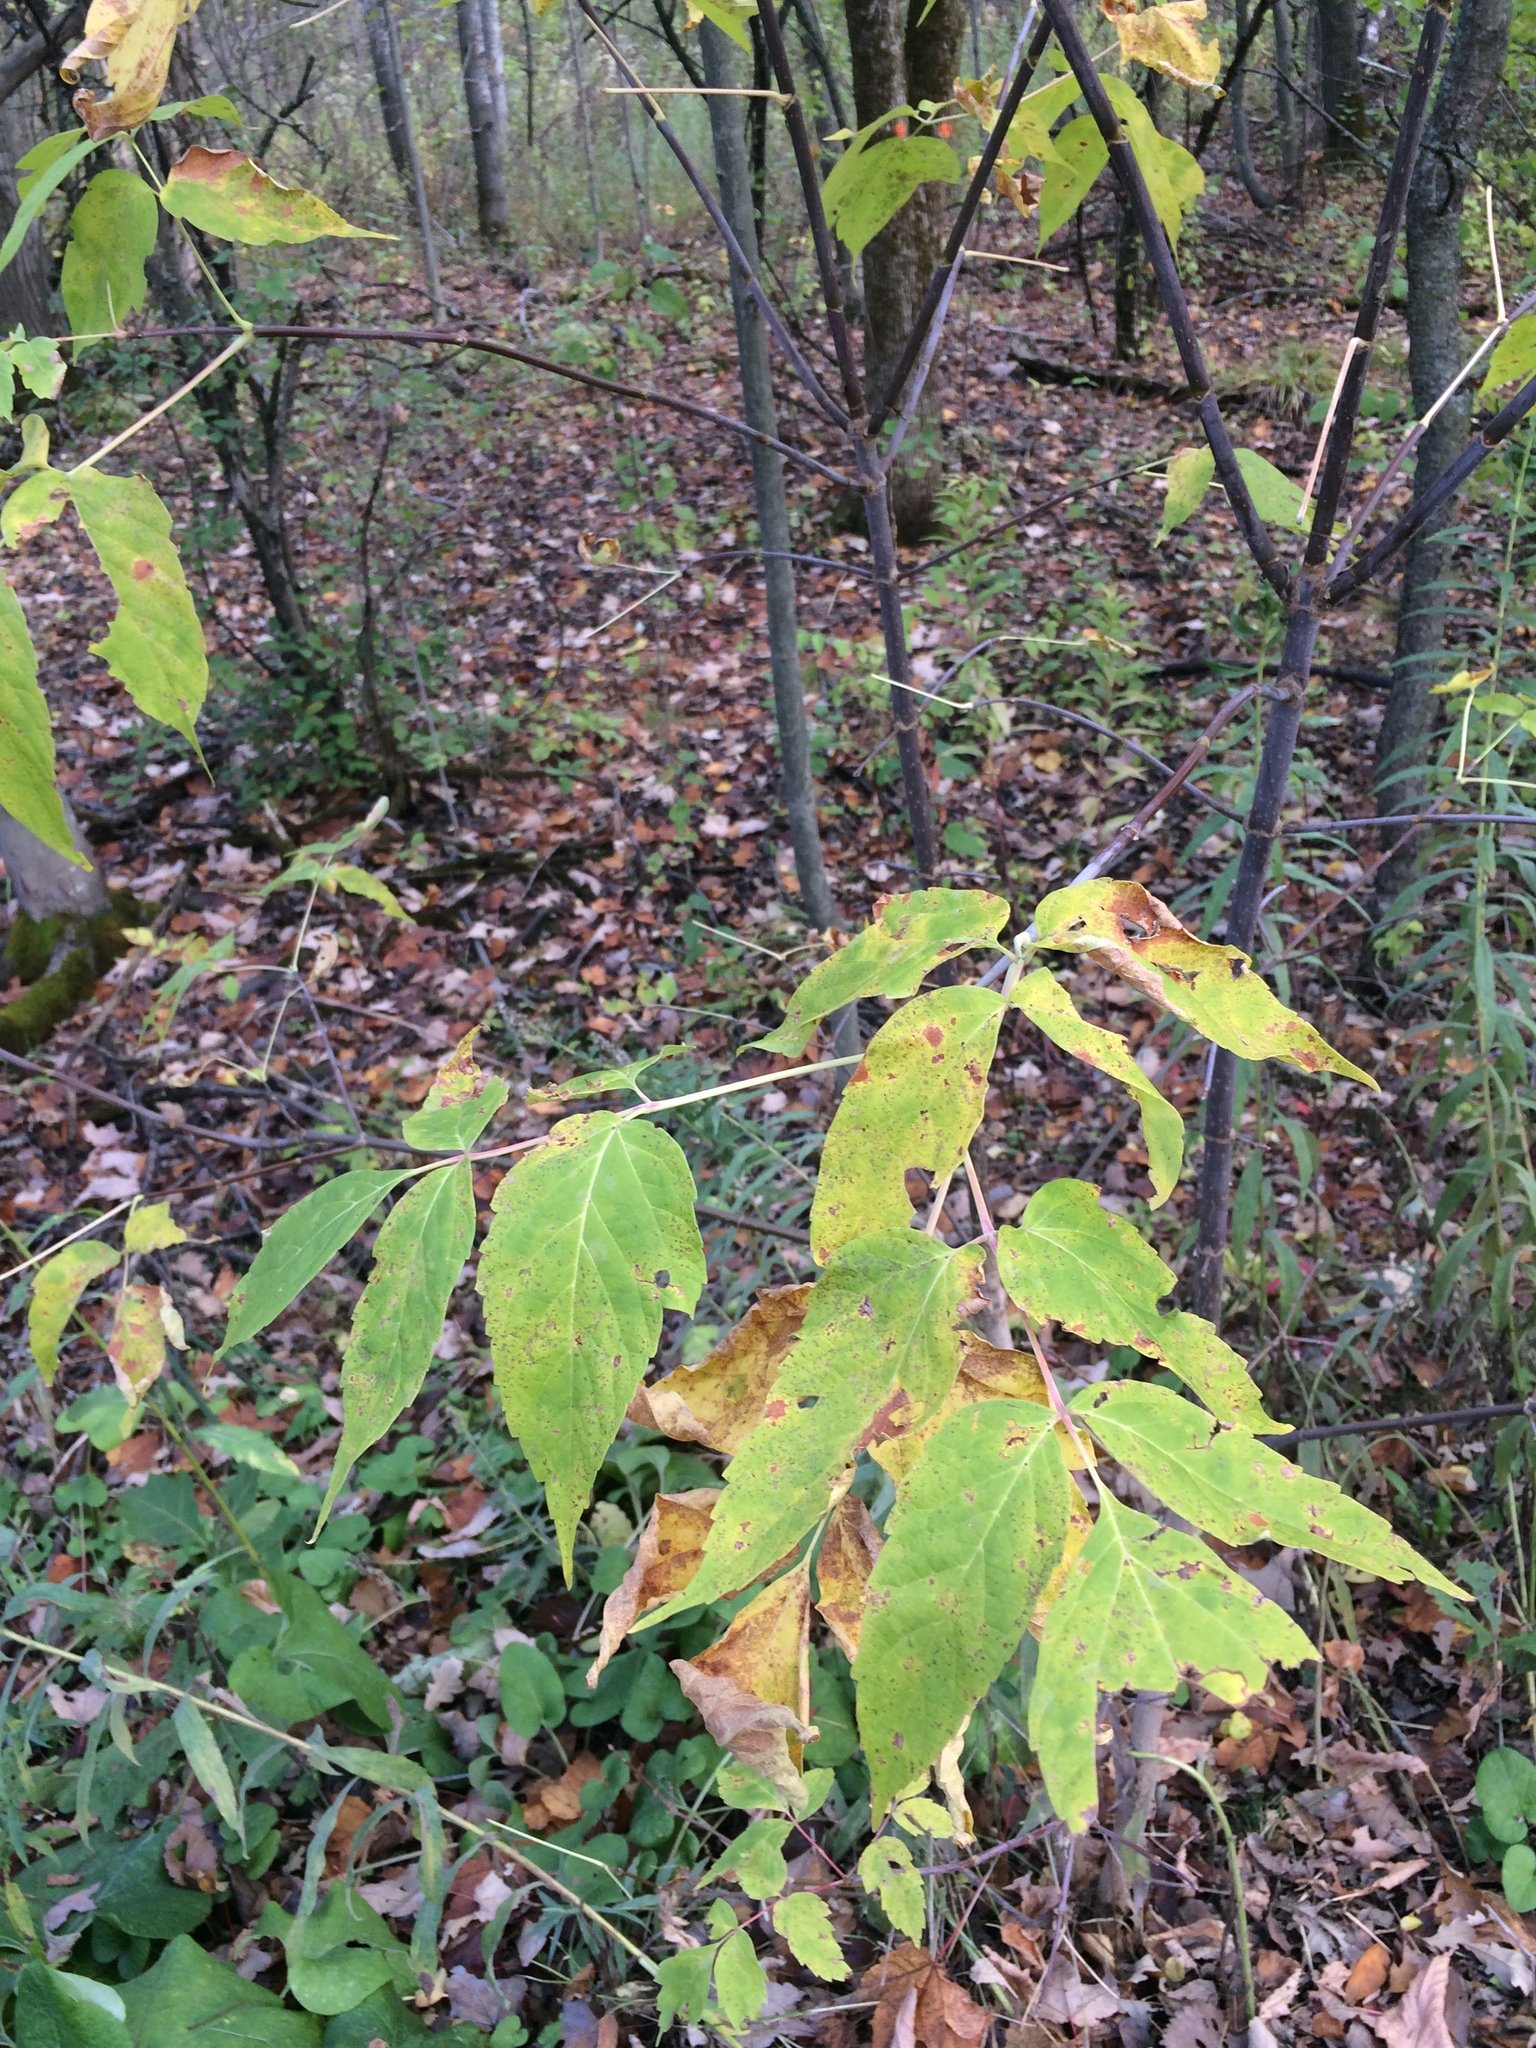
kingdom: Plantae
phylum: Tracheophyta
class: Magnoliopsida
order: Sapindales
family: Sapindaceae
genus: Acer
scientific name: Acer negundo
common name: Ashleaf maple
